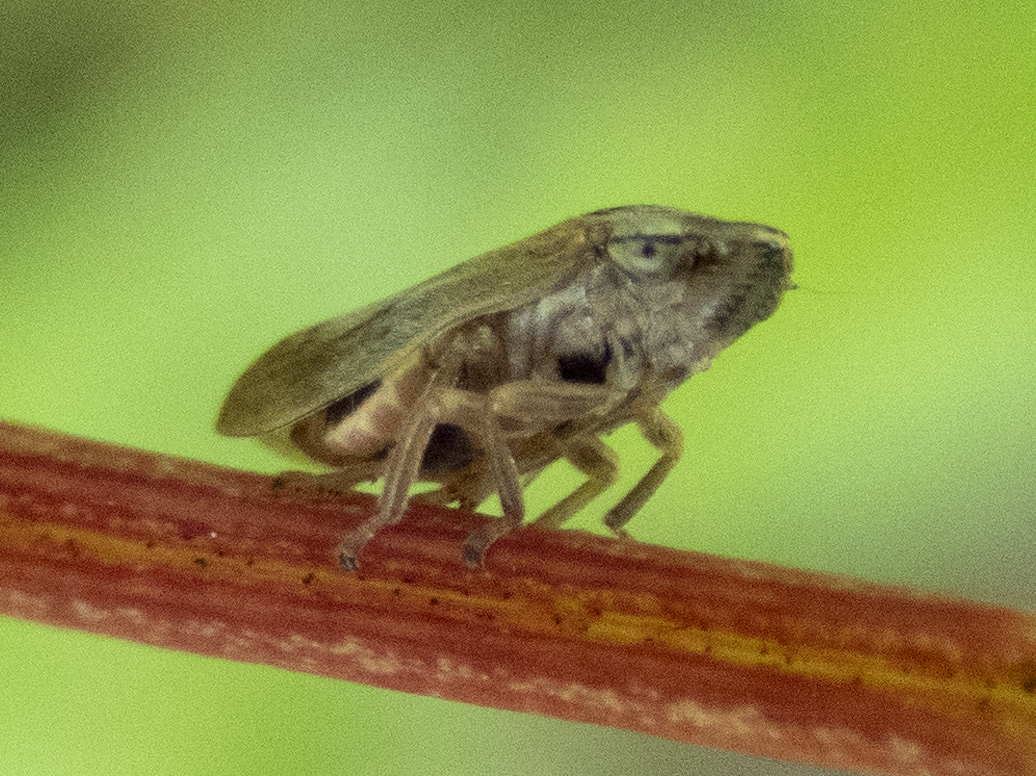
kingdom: Animalia
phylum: Arthropoda
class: Insecta
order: Hemiptera
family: Aphrophoridae
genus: Philaenus
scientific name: Philaenus spumarius
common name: Meadow spittlebug
